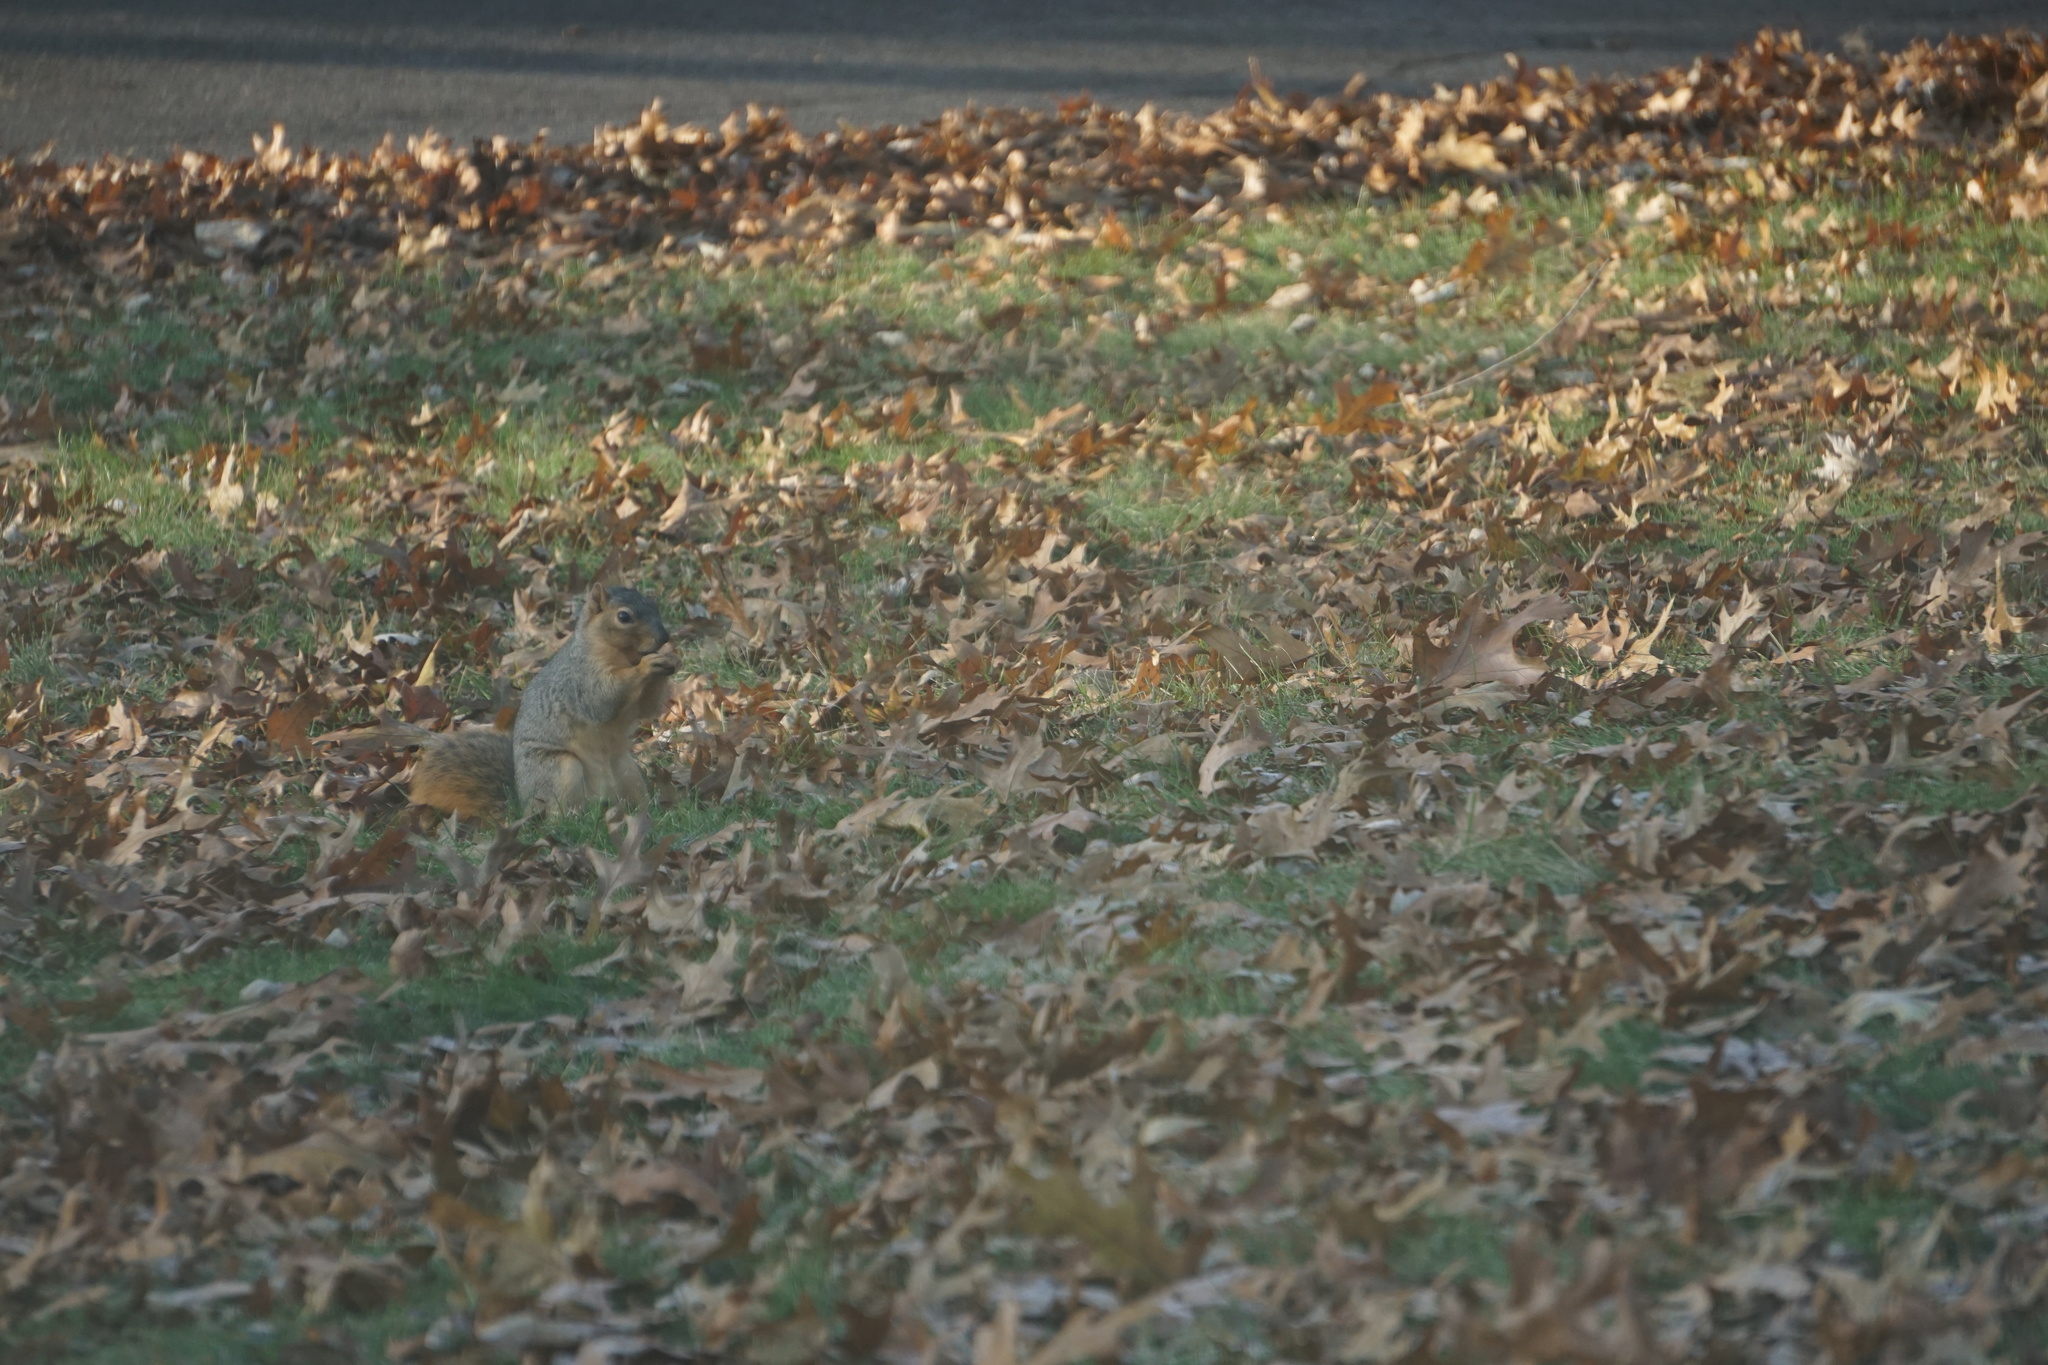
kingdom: Animalia
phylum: Chordata
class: Mammalia
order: Rodentia
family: Sciuridae
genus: Sciurus
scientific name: Sciurus niger
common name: Fox squirrel
